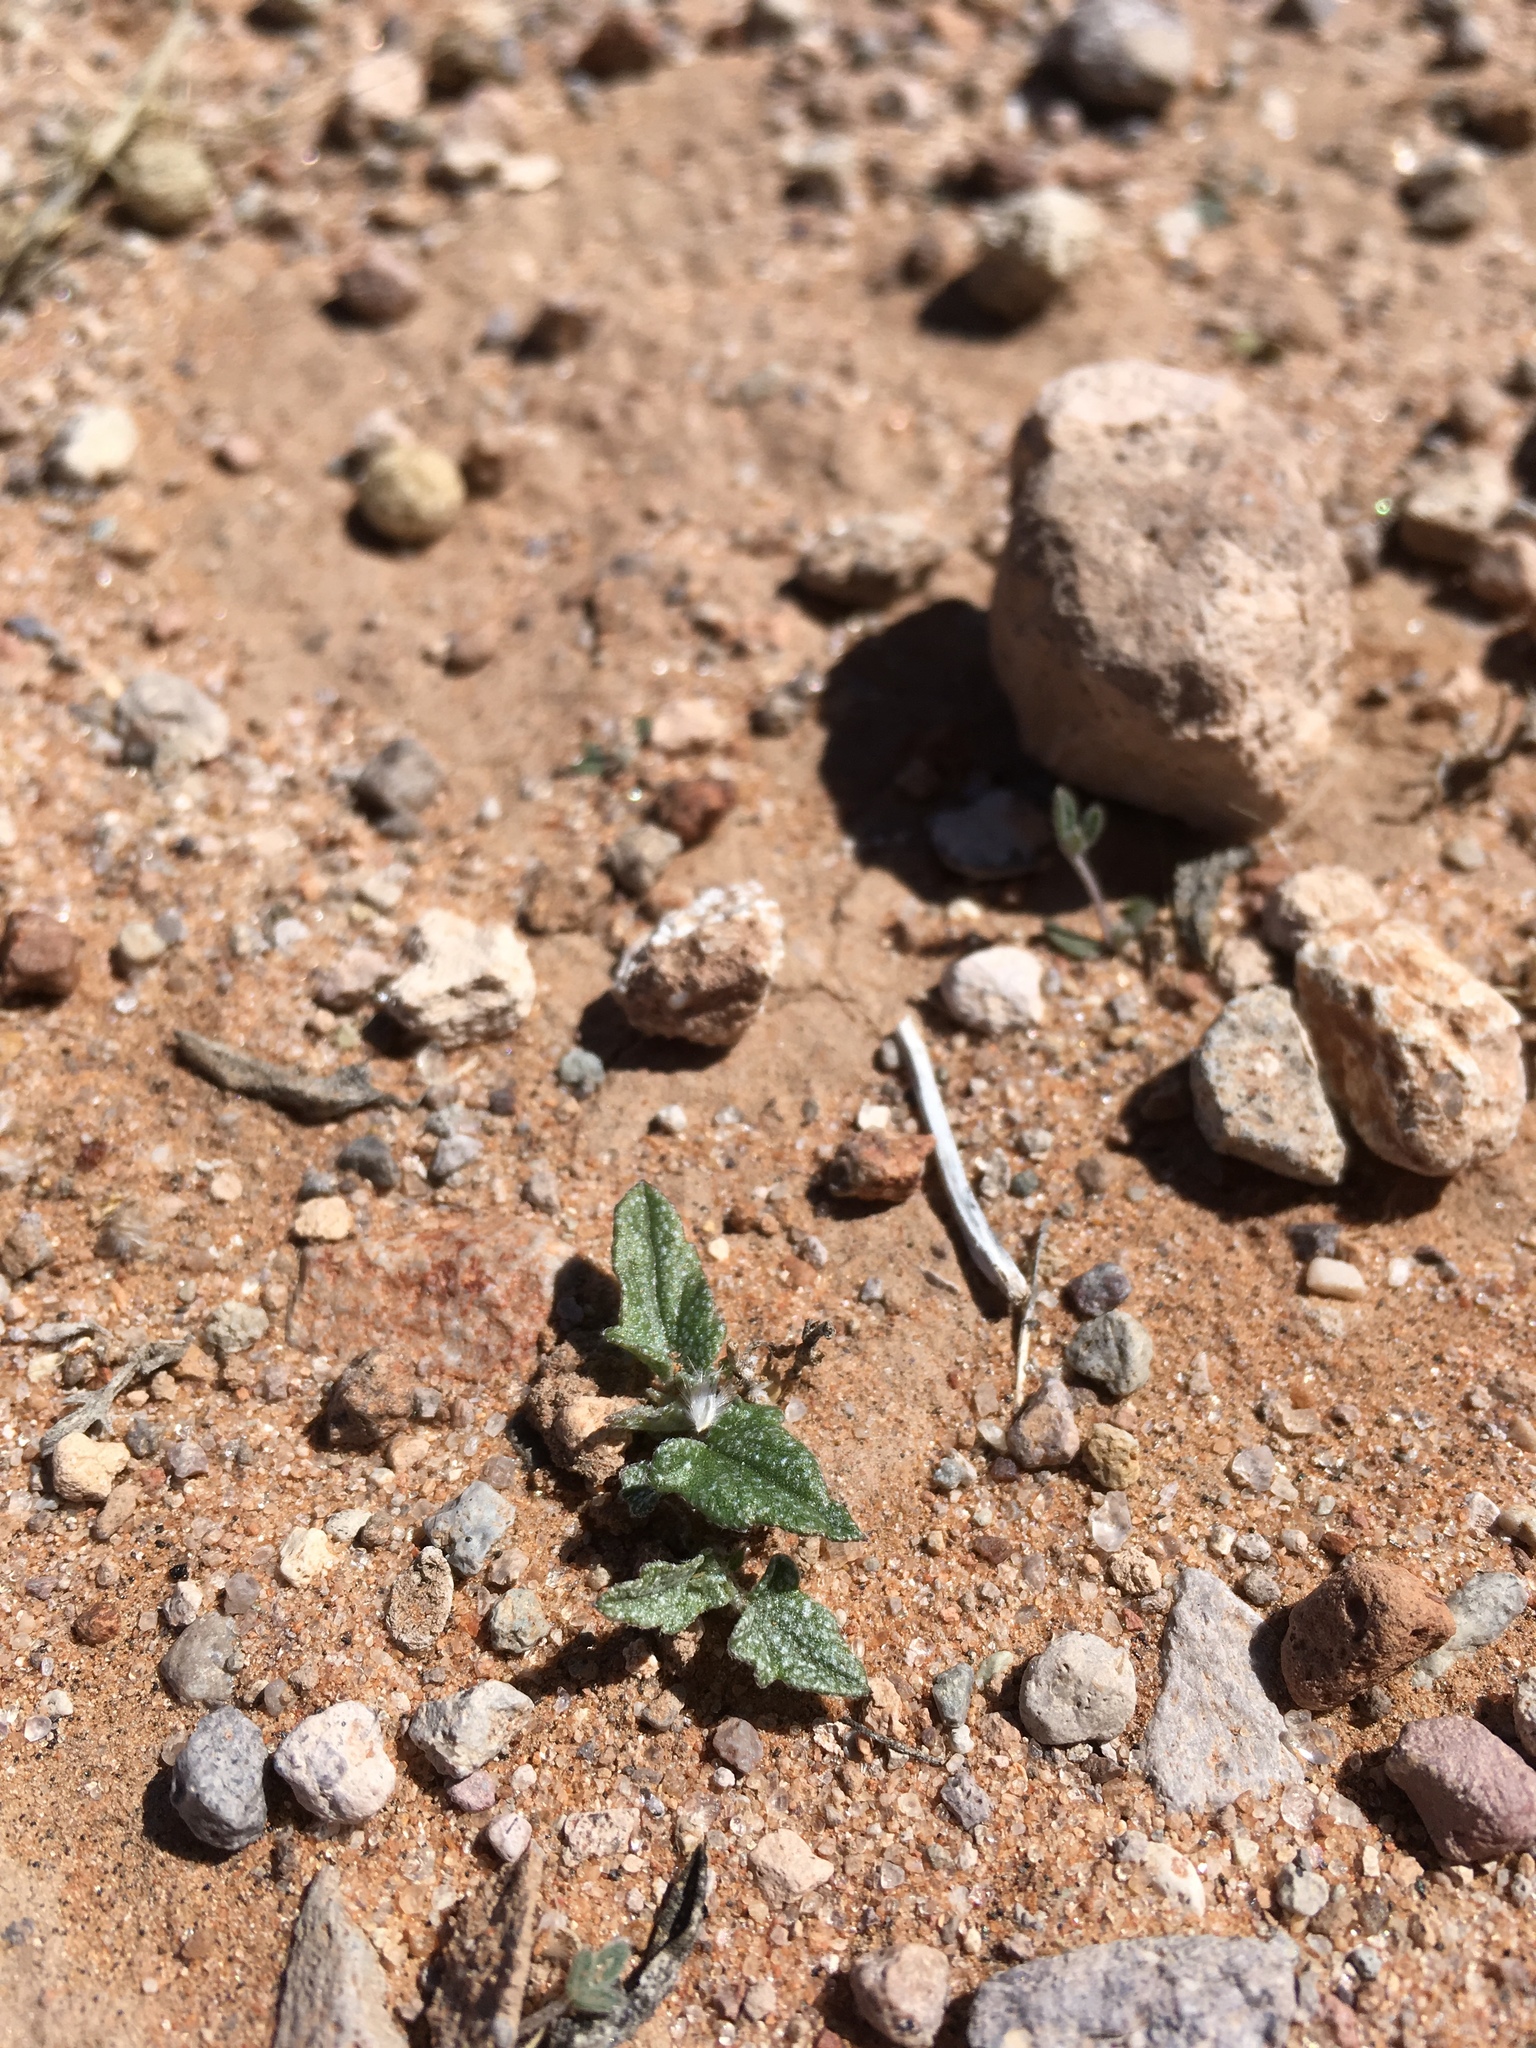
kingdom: Plantae
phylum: Tracheophyta
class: Magnoliopsida
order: Malvales
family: Malvaceae
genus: Malvella
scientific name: Malvella lepidota
